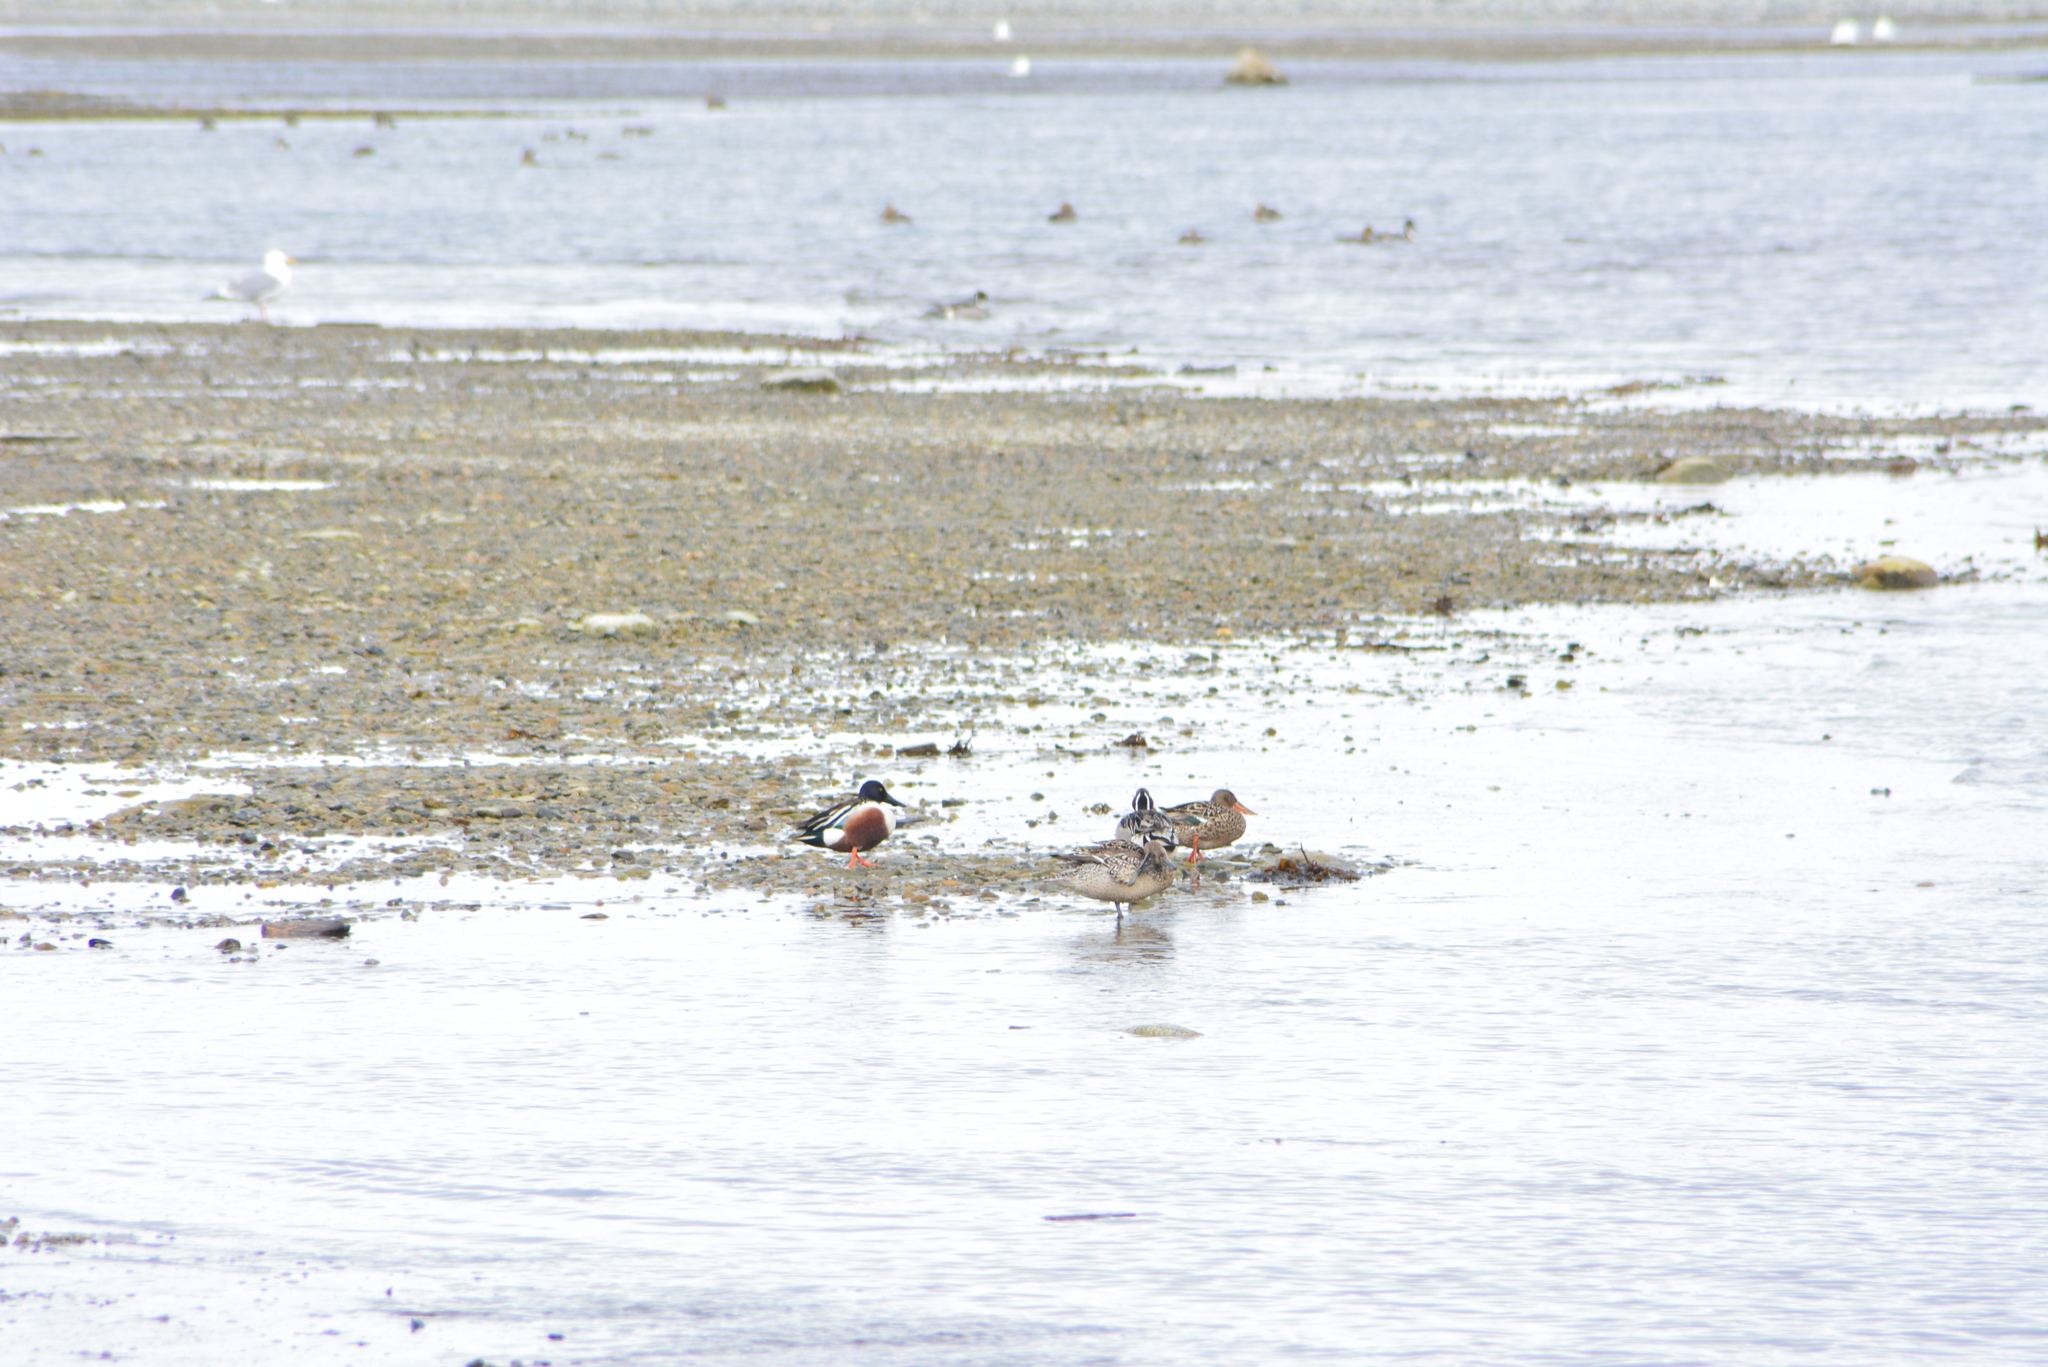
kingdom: Animalia
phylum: Chordata
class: Aves
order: Anseriformes
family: Anatidae
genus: Spatula
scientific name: Spatula clypeata
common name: Northern shoveler
